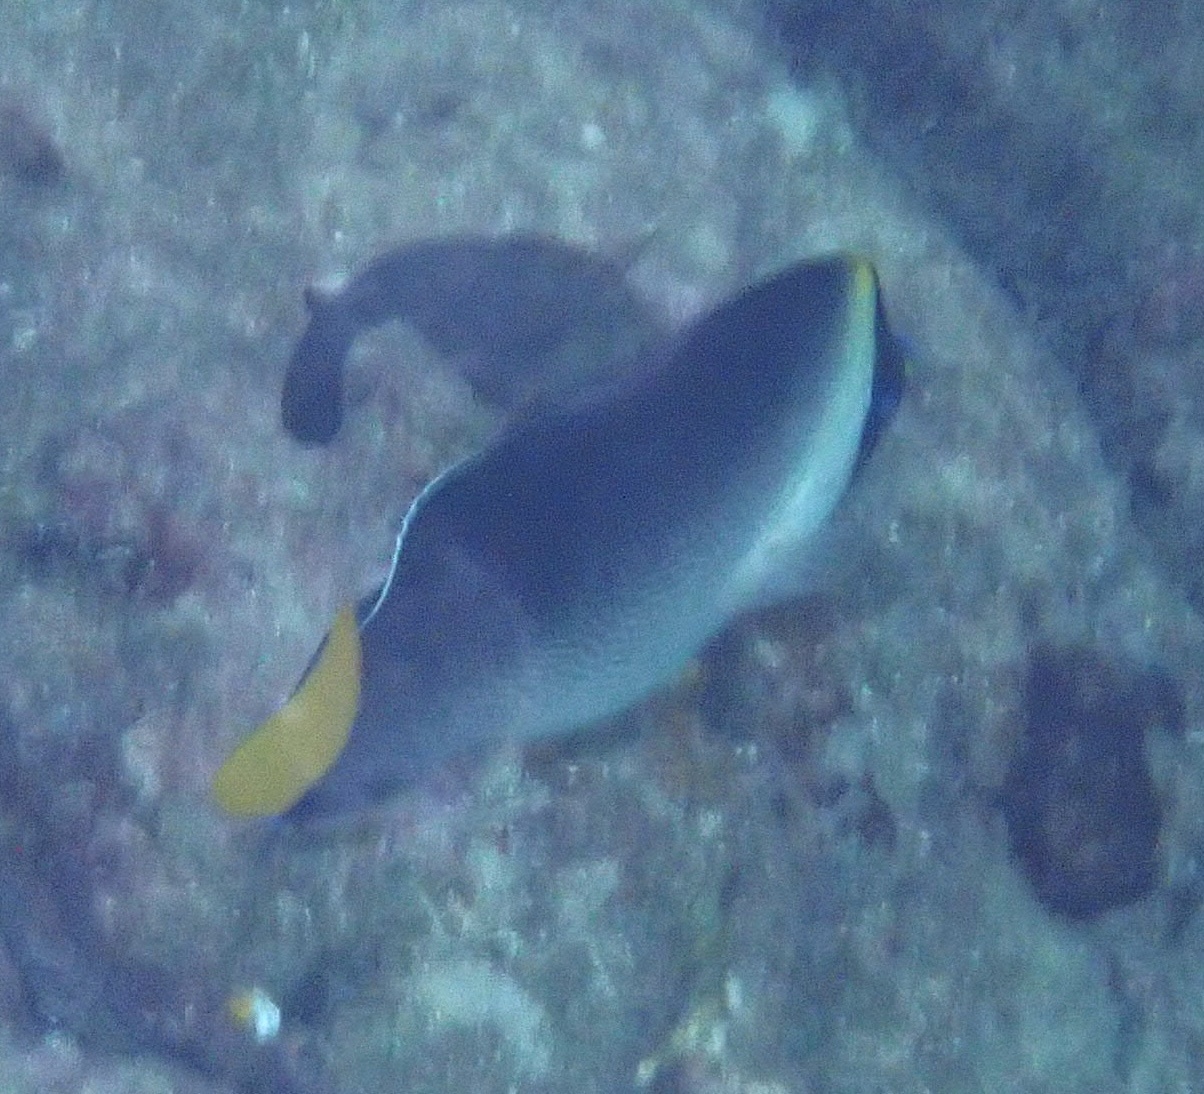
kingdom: Animalia
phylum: Chordata
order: Perciformes
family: Pomacanthidae
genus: Chaetodontoplus
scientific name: Chaetodontoplus mesoleucus
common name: Vermiculated angelfish
